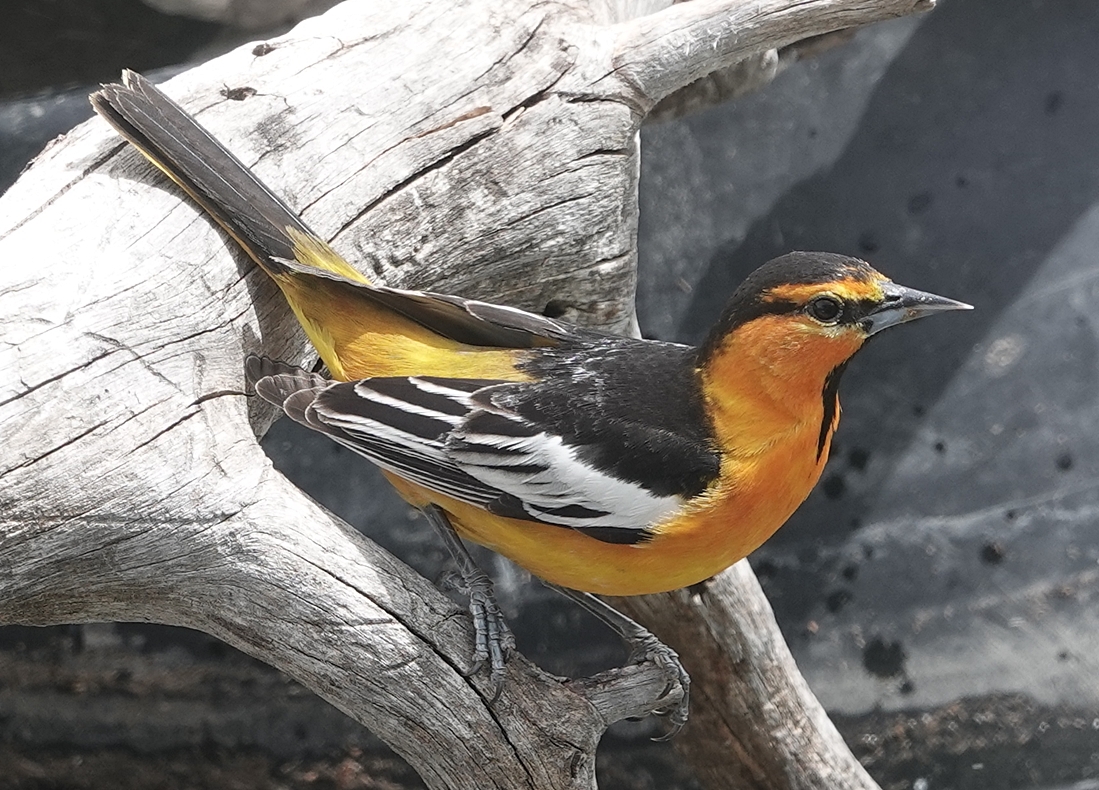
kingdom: Animalia
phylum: Chordata
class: Aves
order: Passeriformes
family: Icteridae
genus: Icterus
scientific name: Icterus bullockii
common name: Bullock's oriole
